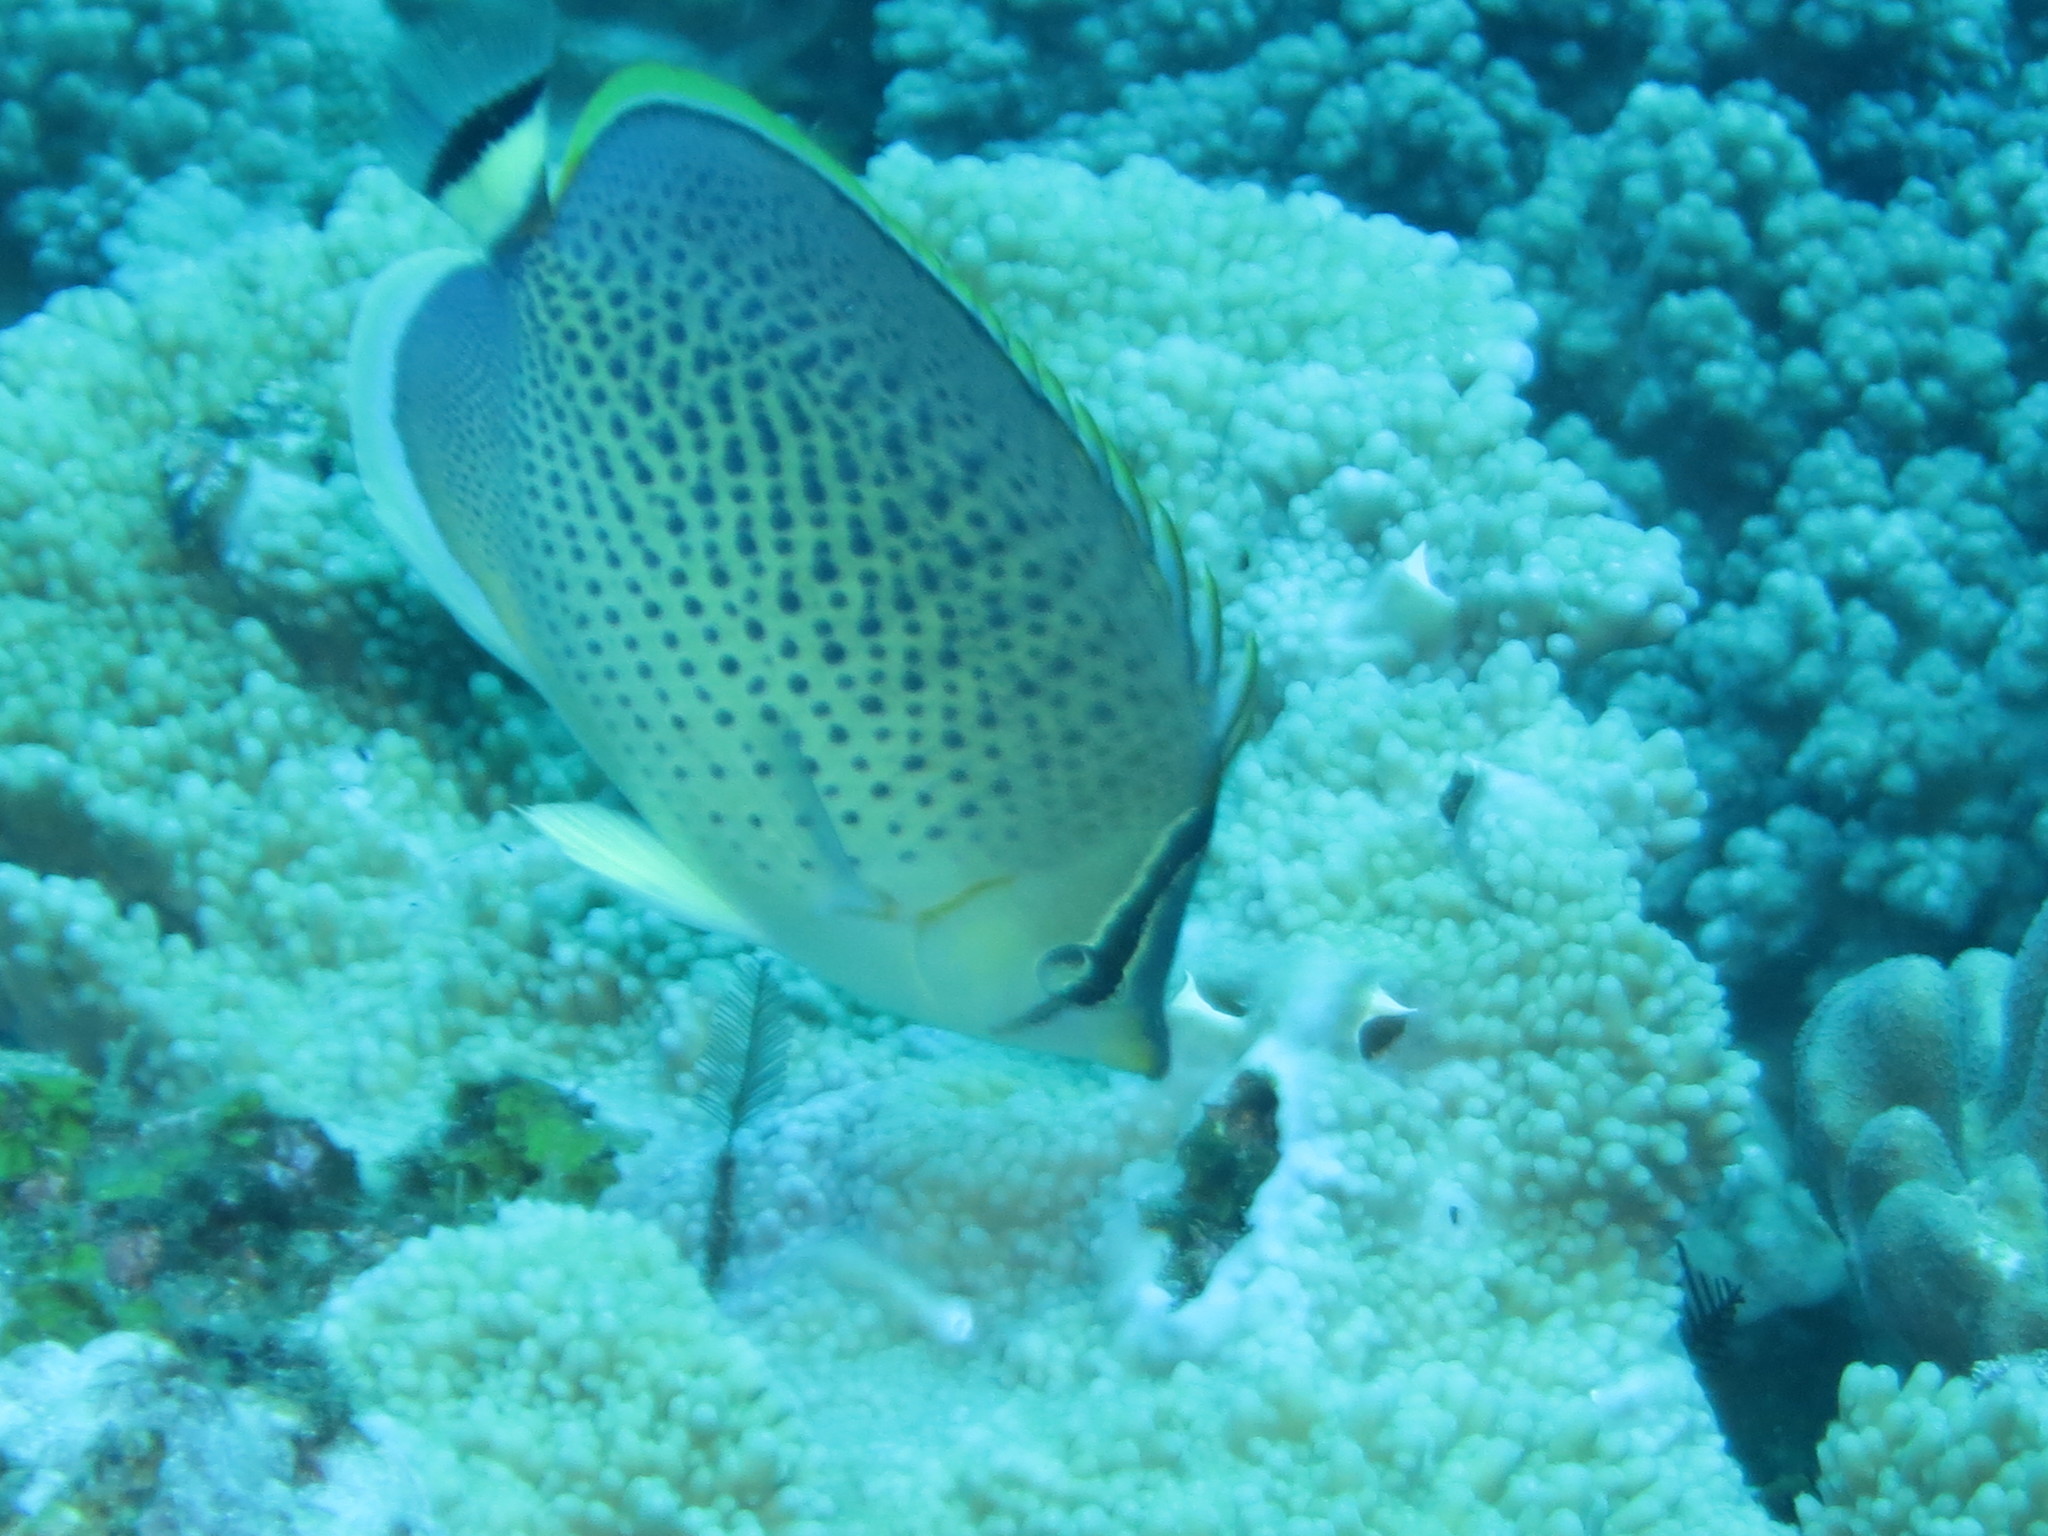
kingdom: Animalia
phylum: Chordata
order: Perciformes
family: Chaetodontidae
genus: Chaetodon
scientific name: Chaetodon guttatissimus
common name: Spotted butterflyfish
